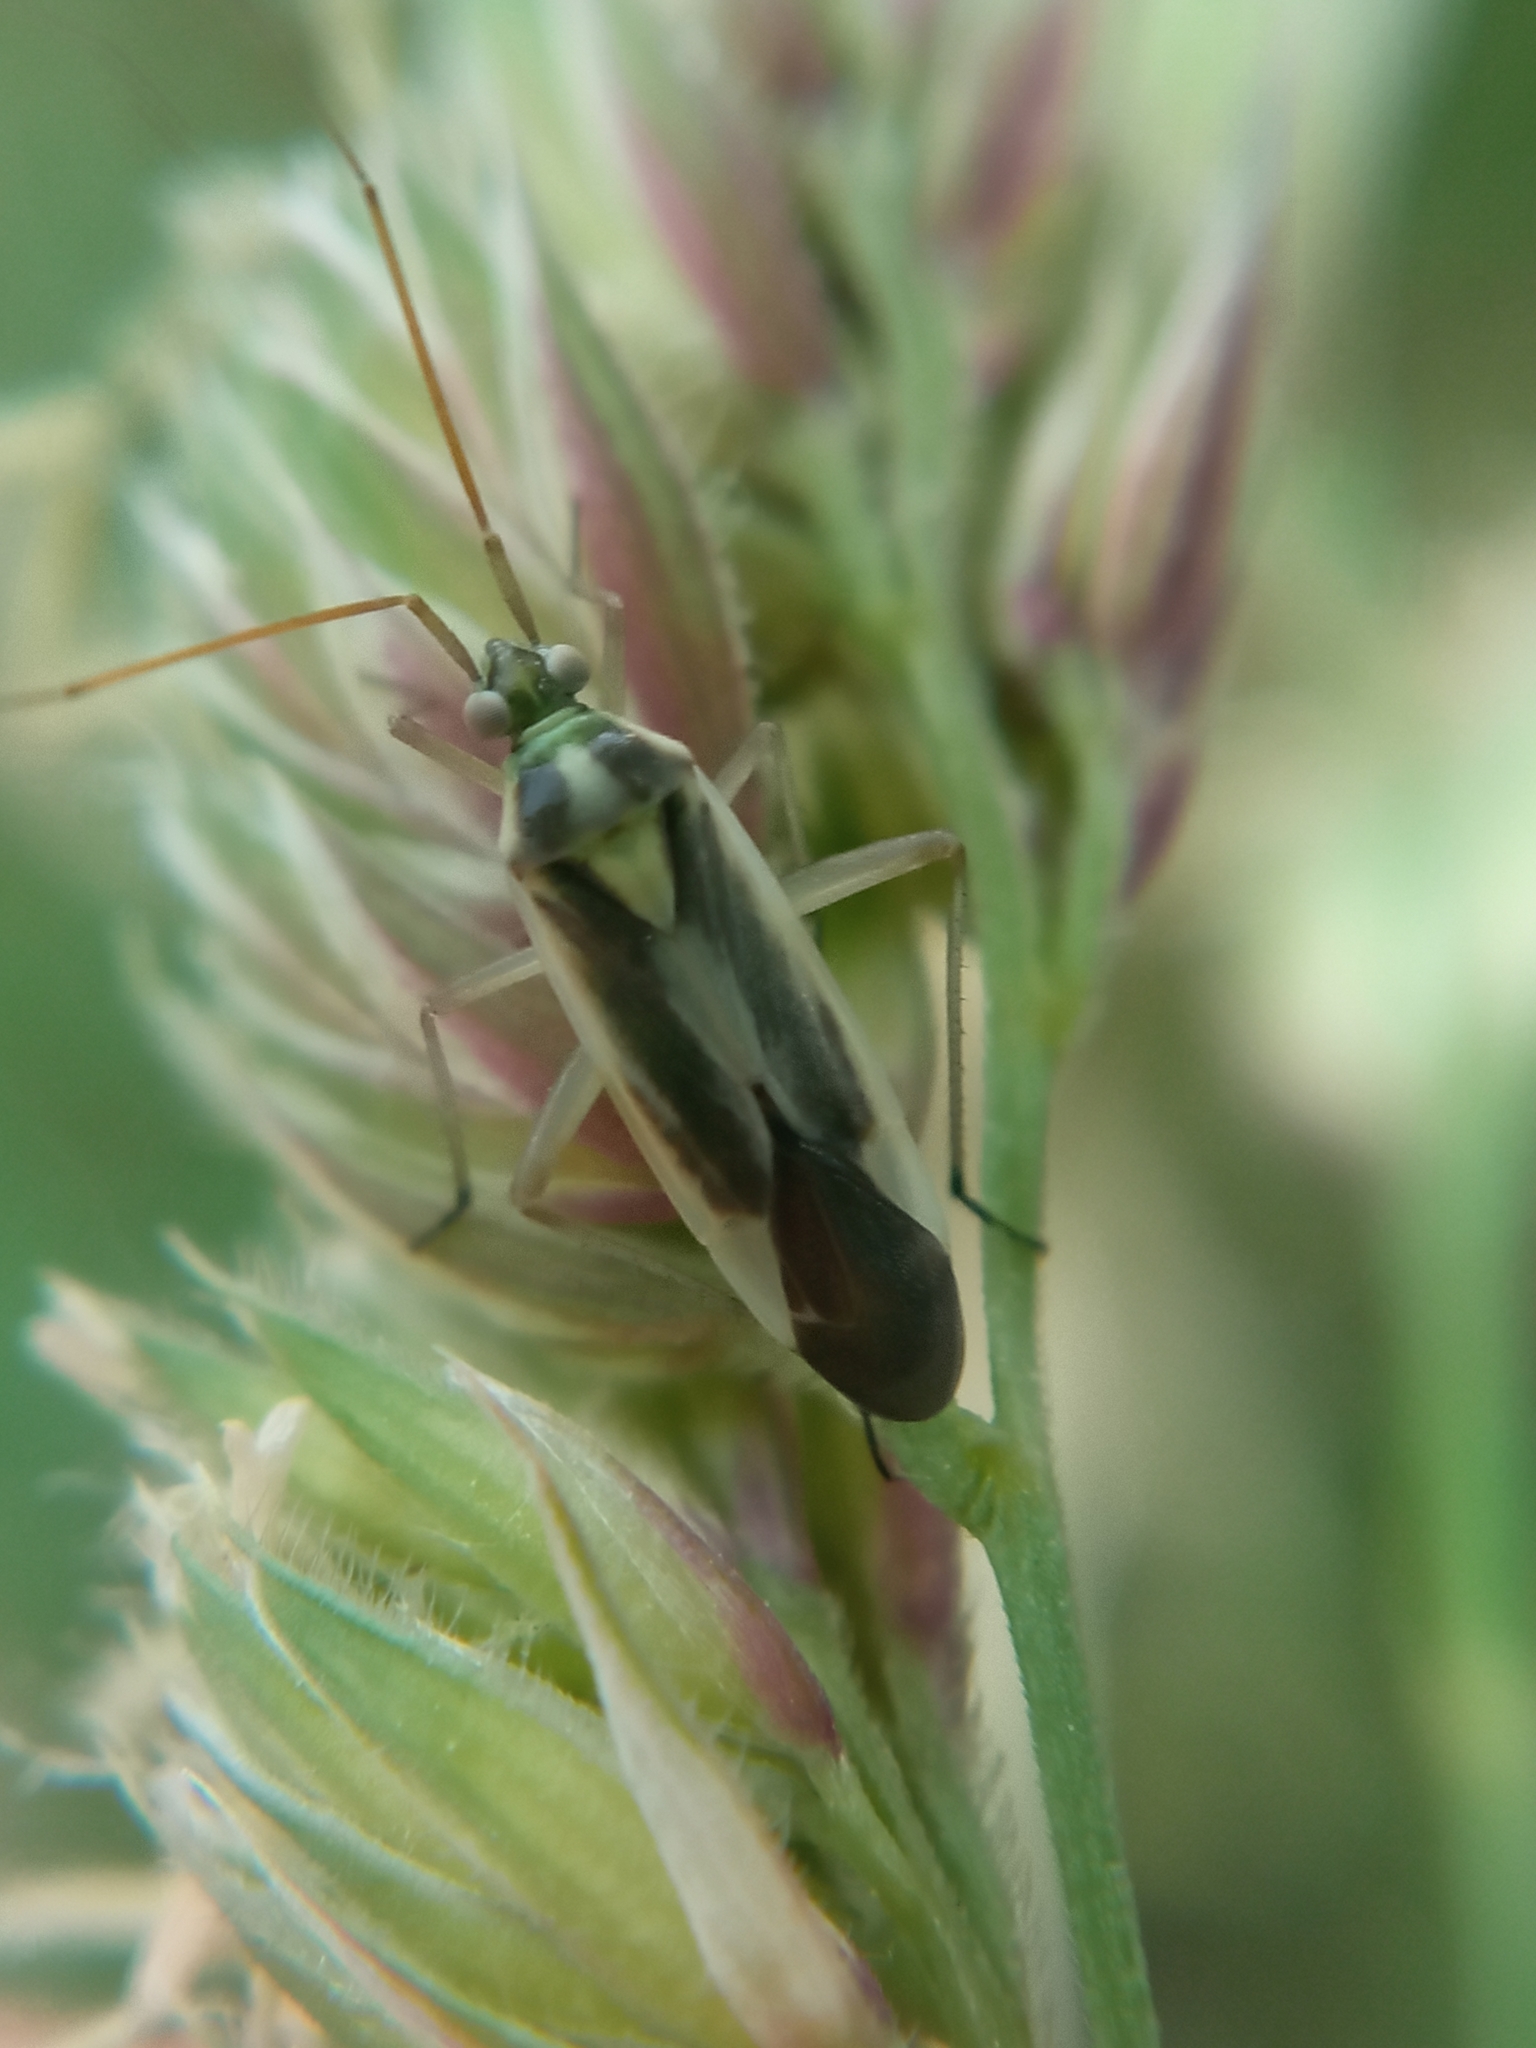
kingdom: Animalia
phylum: Arthropoda
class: Insecta
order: Hemiptera
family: Miridae
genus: Stenotus
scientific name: Stenotus binotatus
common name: Plant bug
